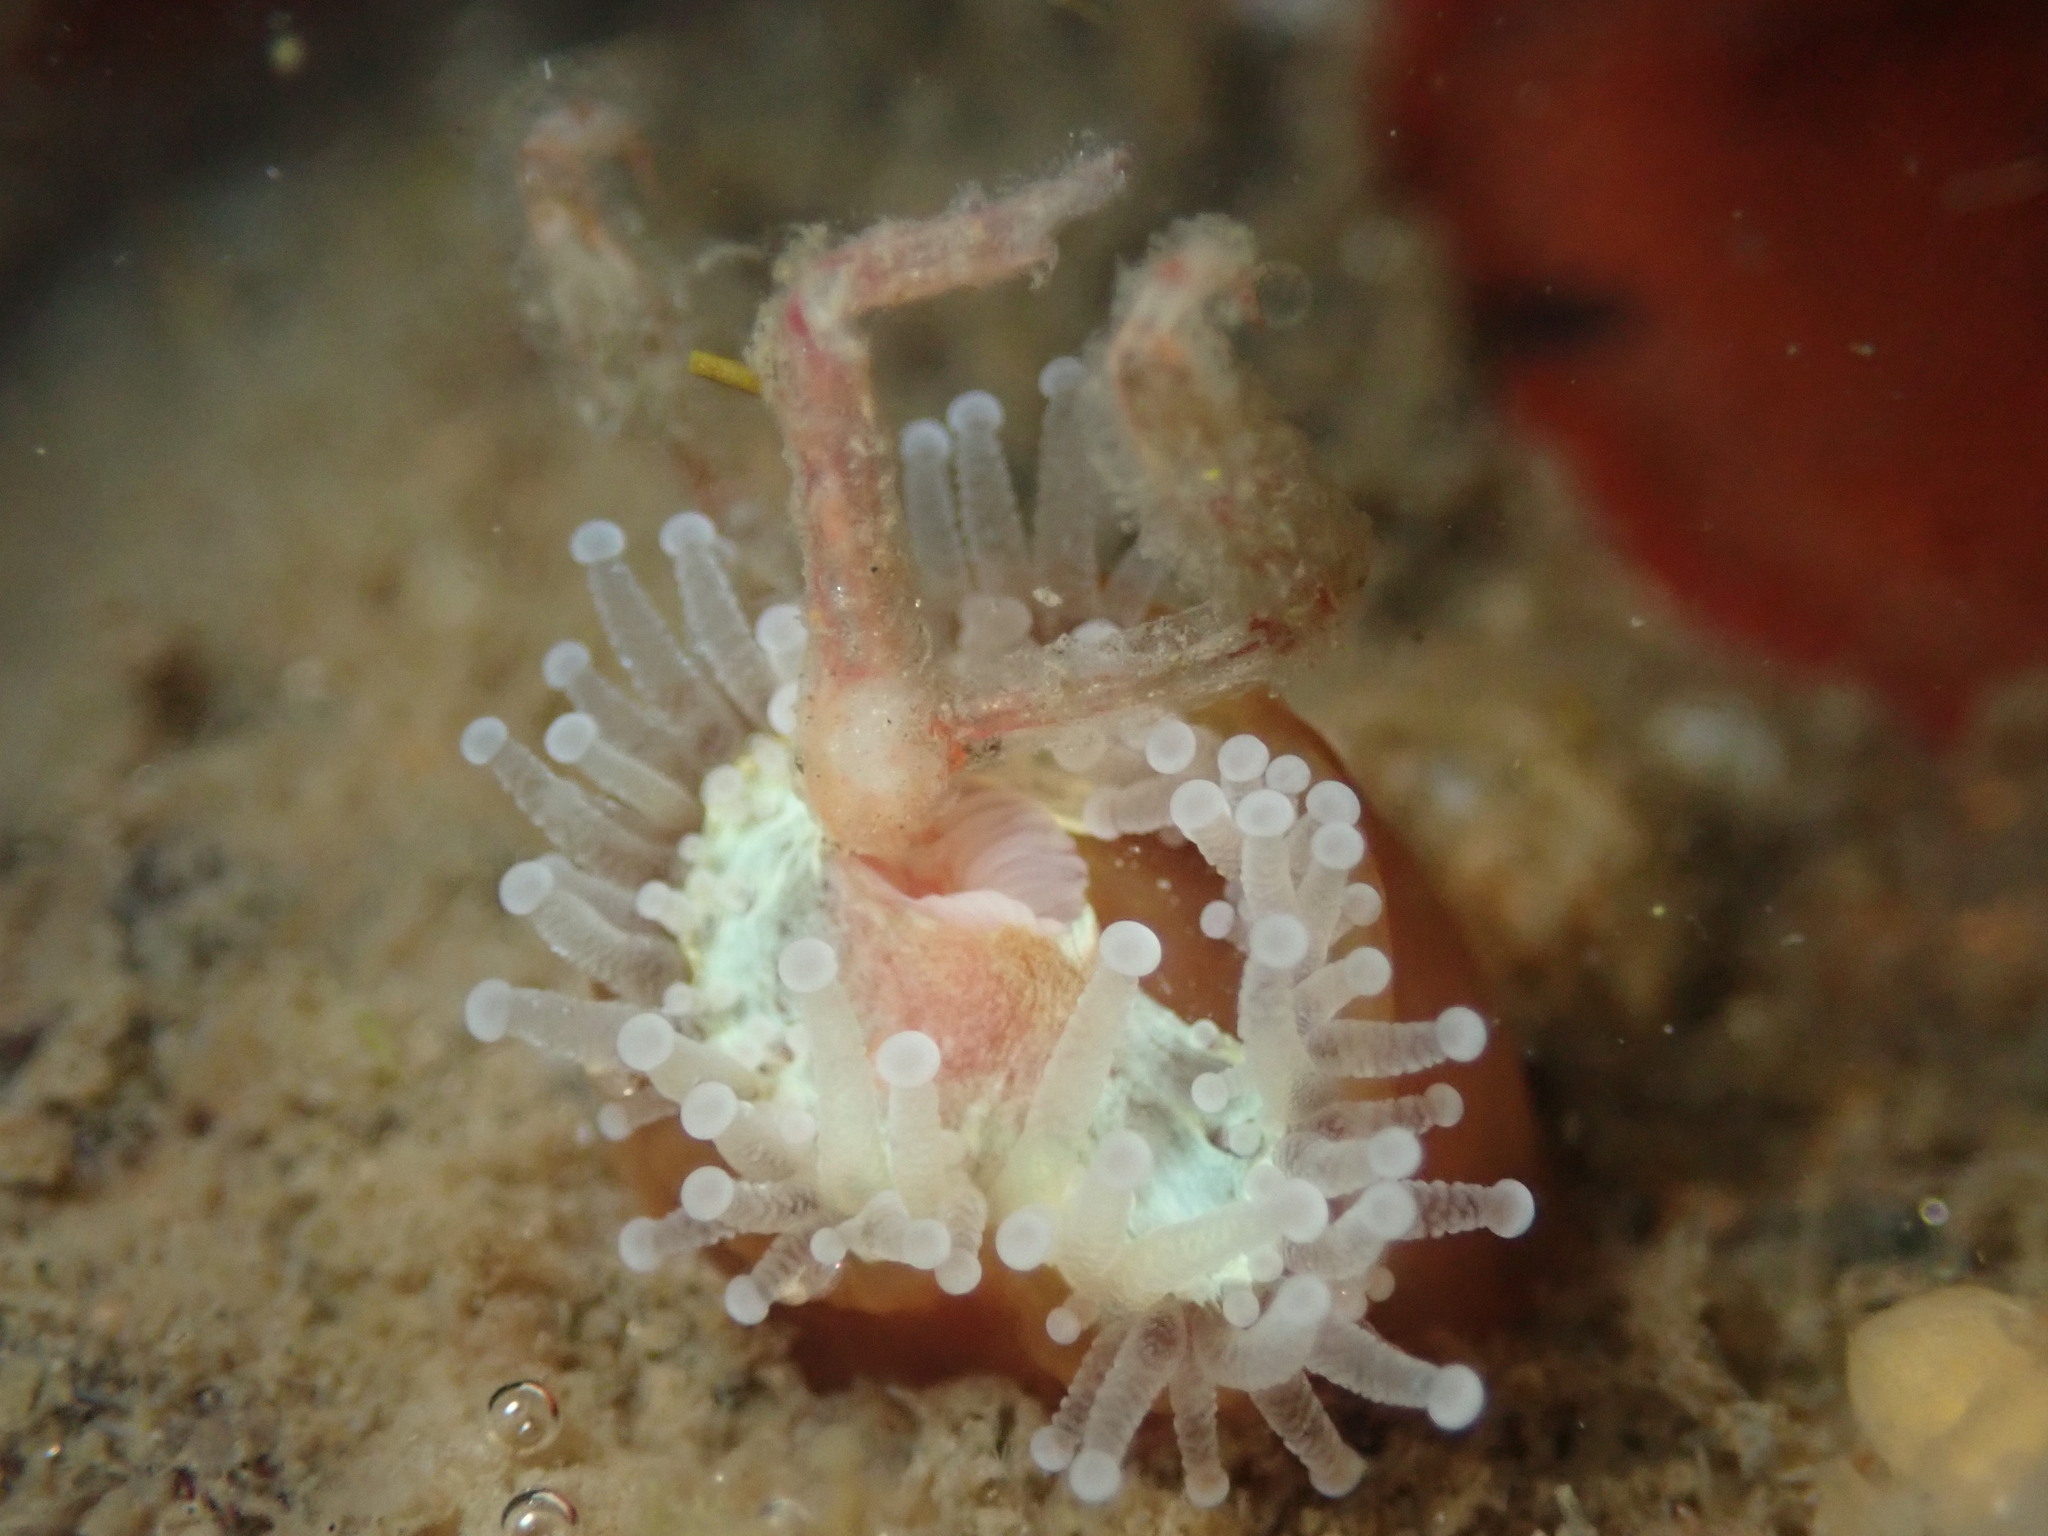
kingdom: Animalia
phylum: Cnidaria
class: Anthozoa
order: Corallimorpharia
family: Corallimorphidae
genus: Corynactis
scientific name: Corynactis californica
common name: Strawberry corallimorpharian
